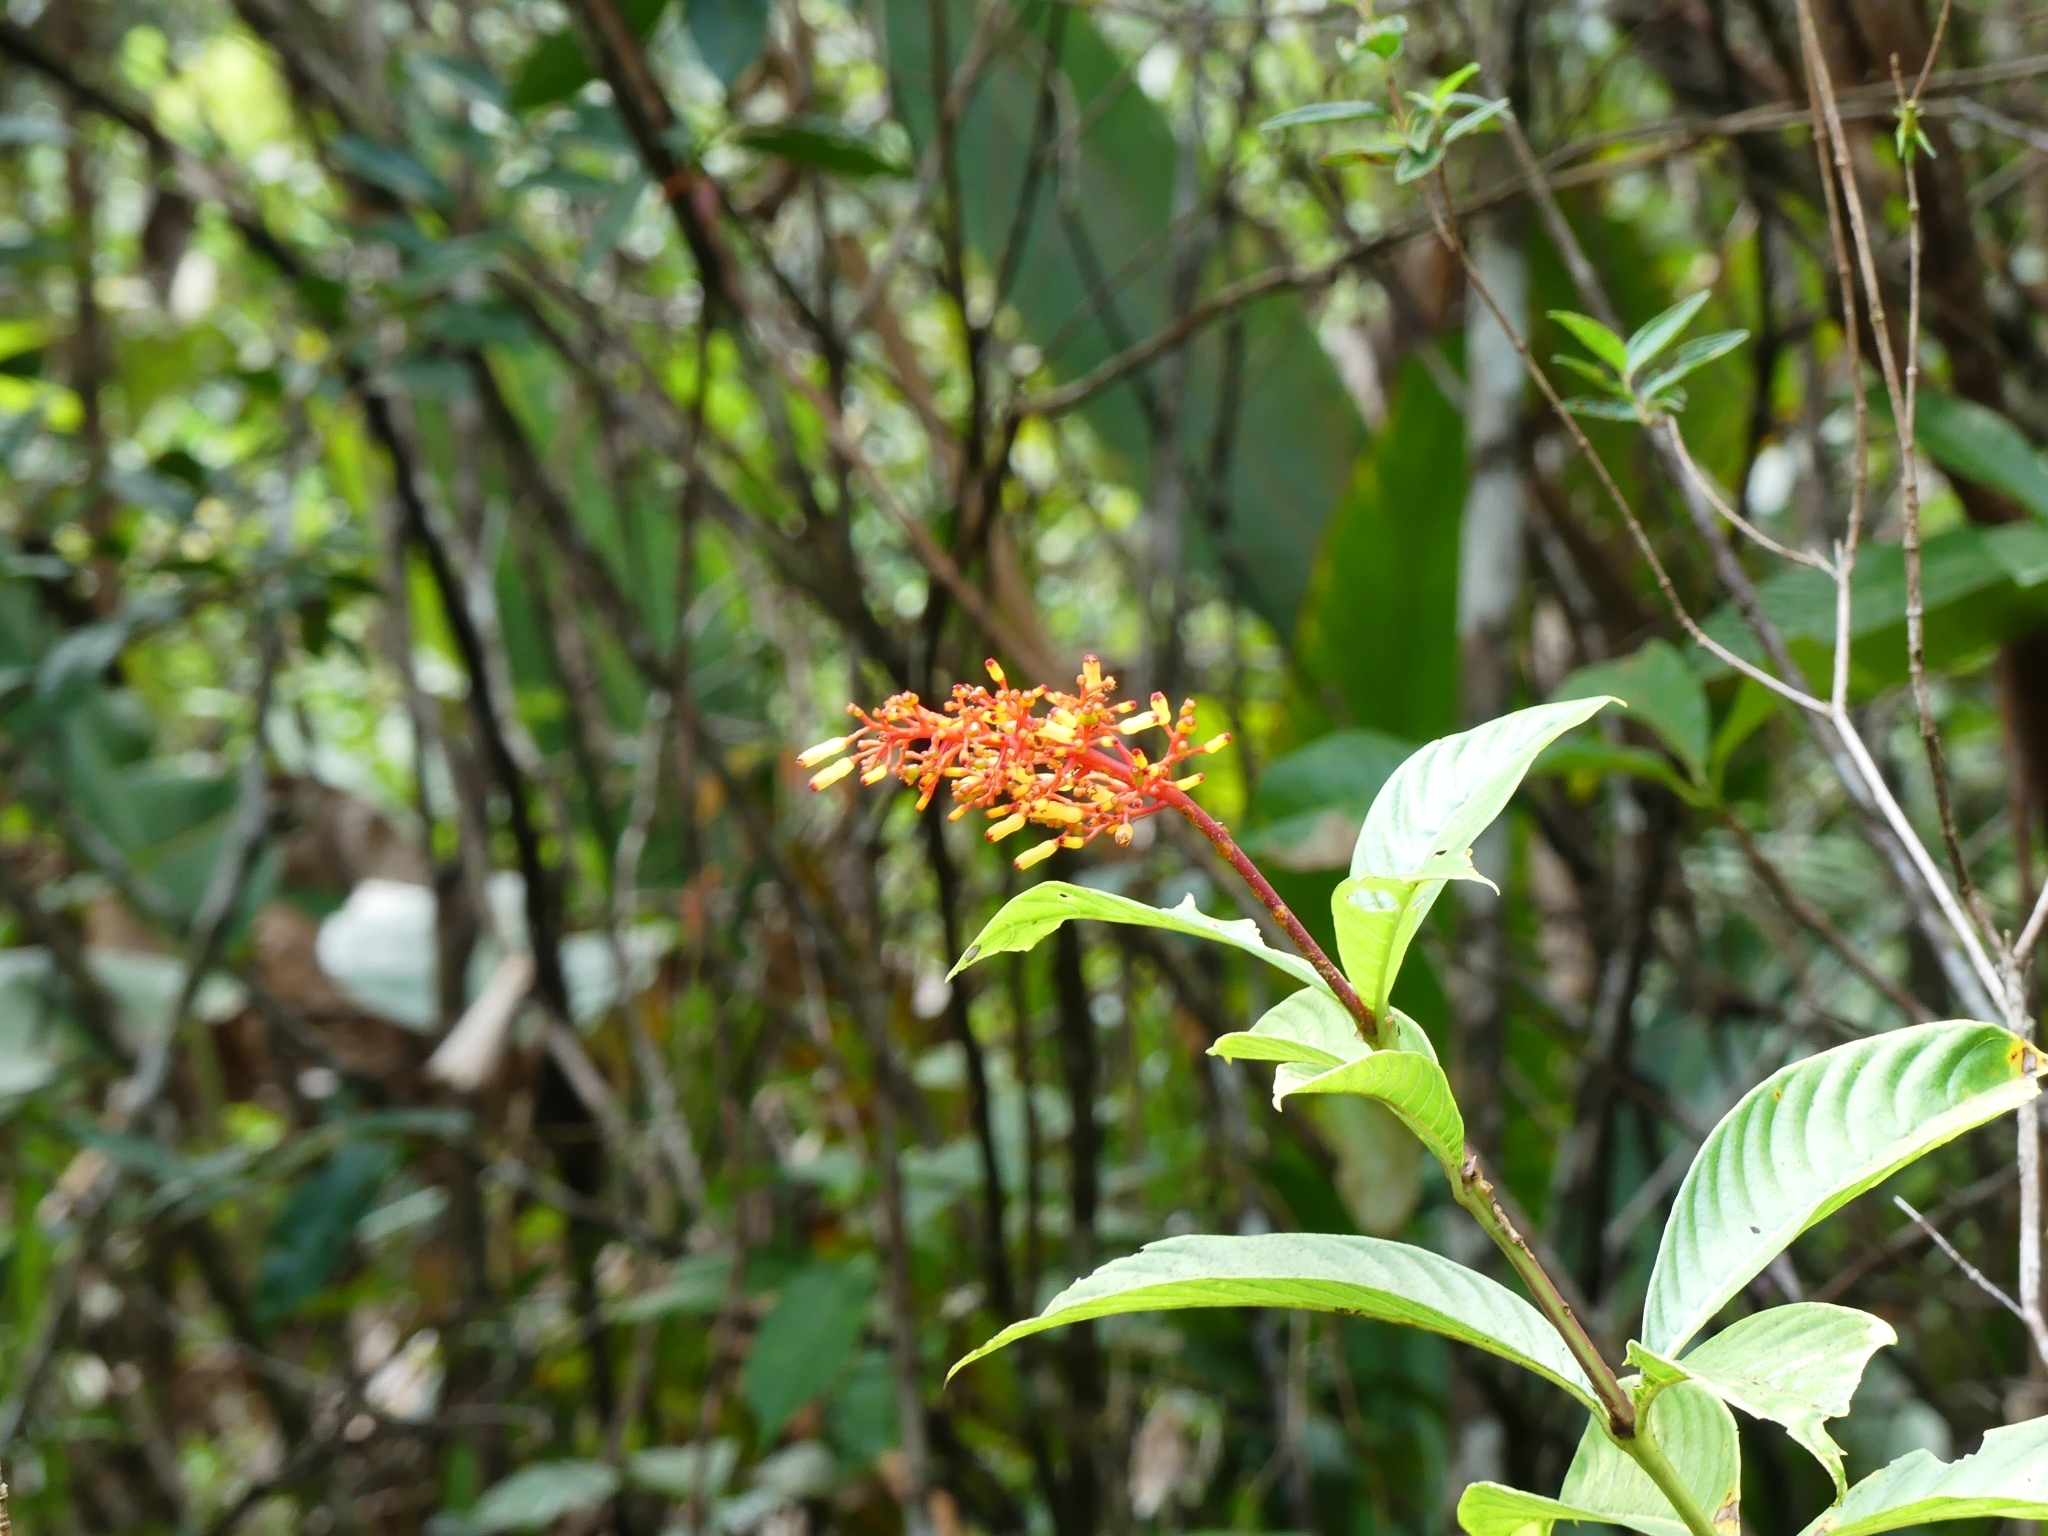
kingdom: Plantae
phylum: Tracheophyta
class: Magnoliopsida
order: Gentianales
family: Rubiaceae
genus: Palicourea
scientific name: Palicourea triphylla
